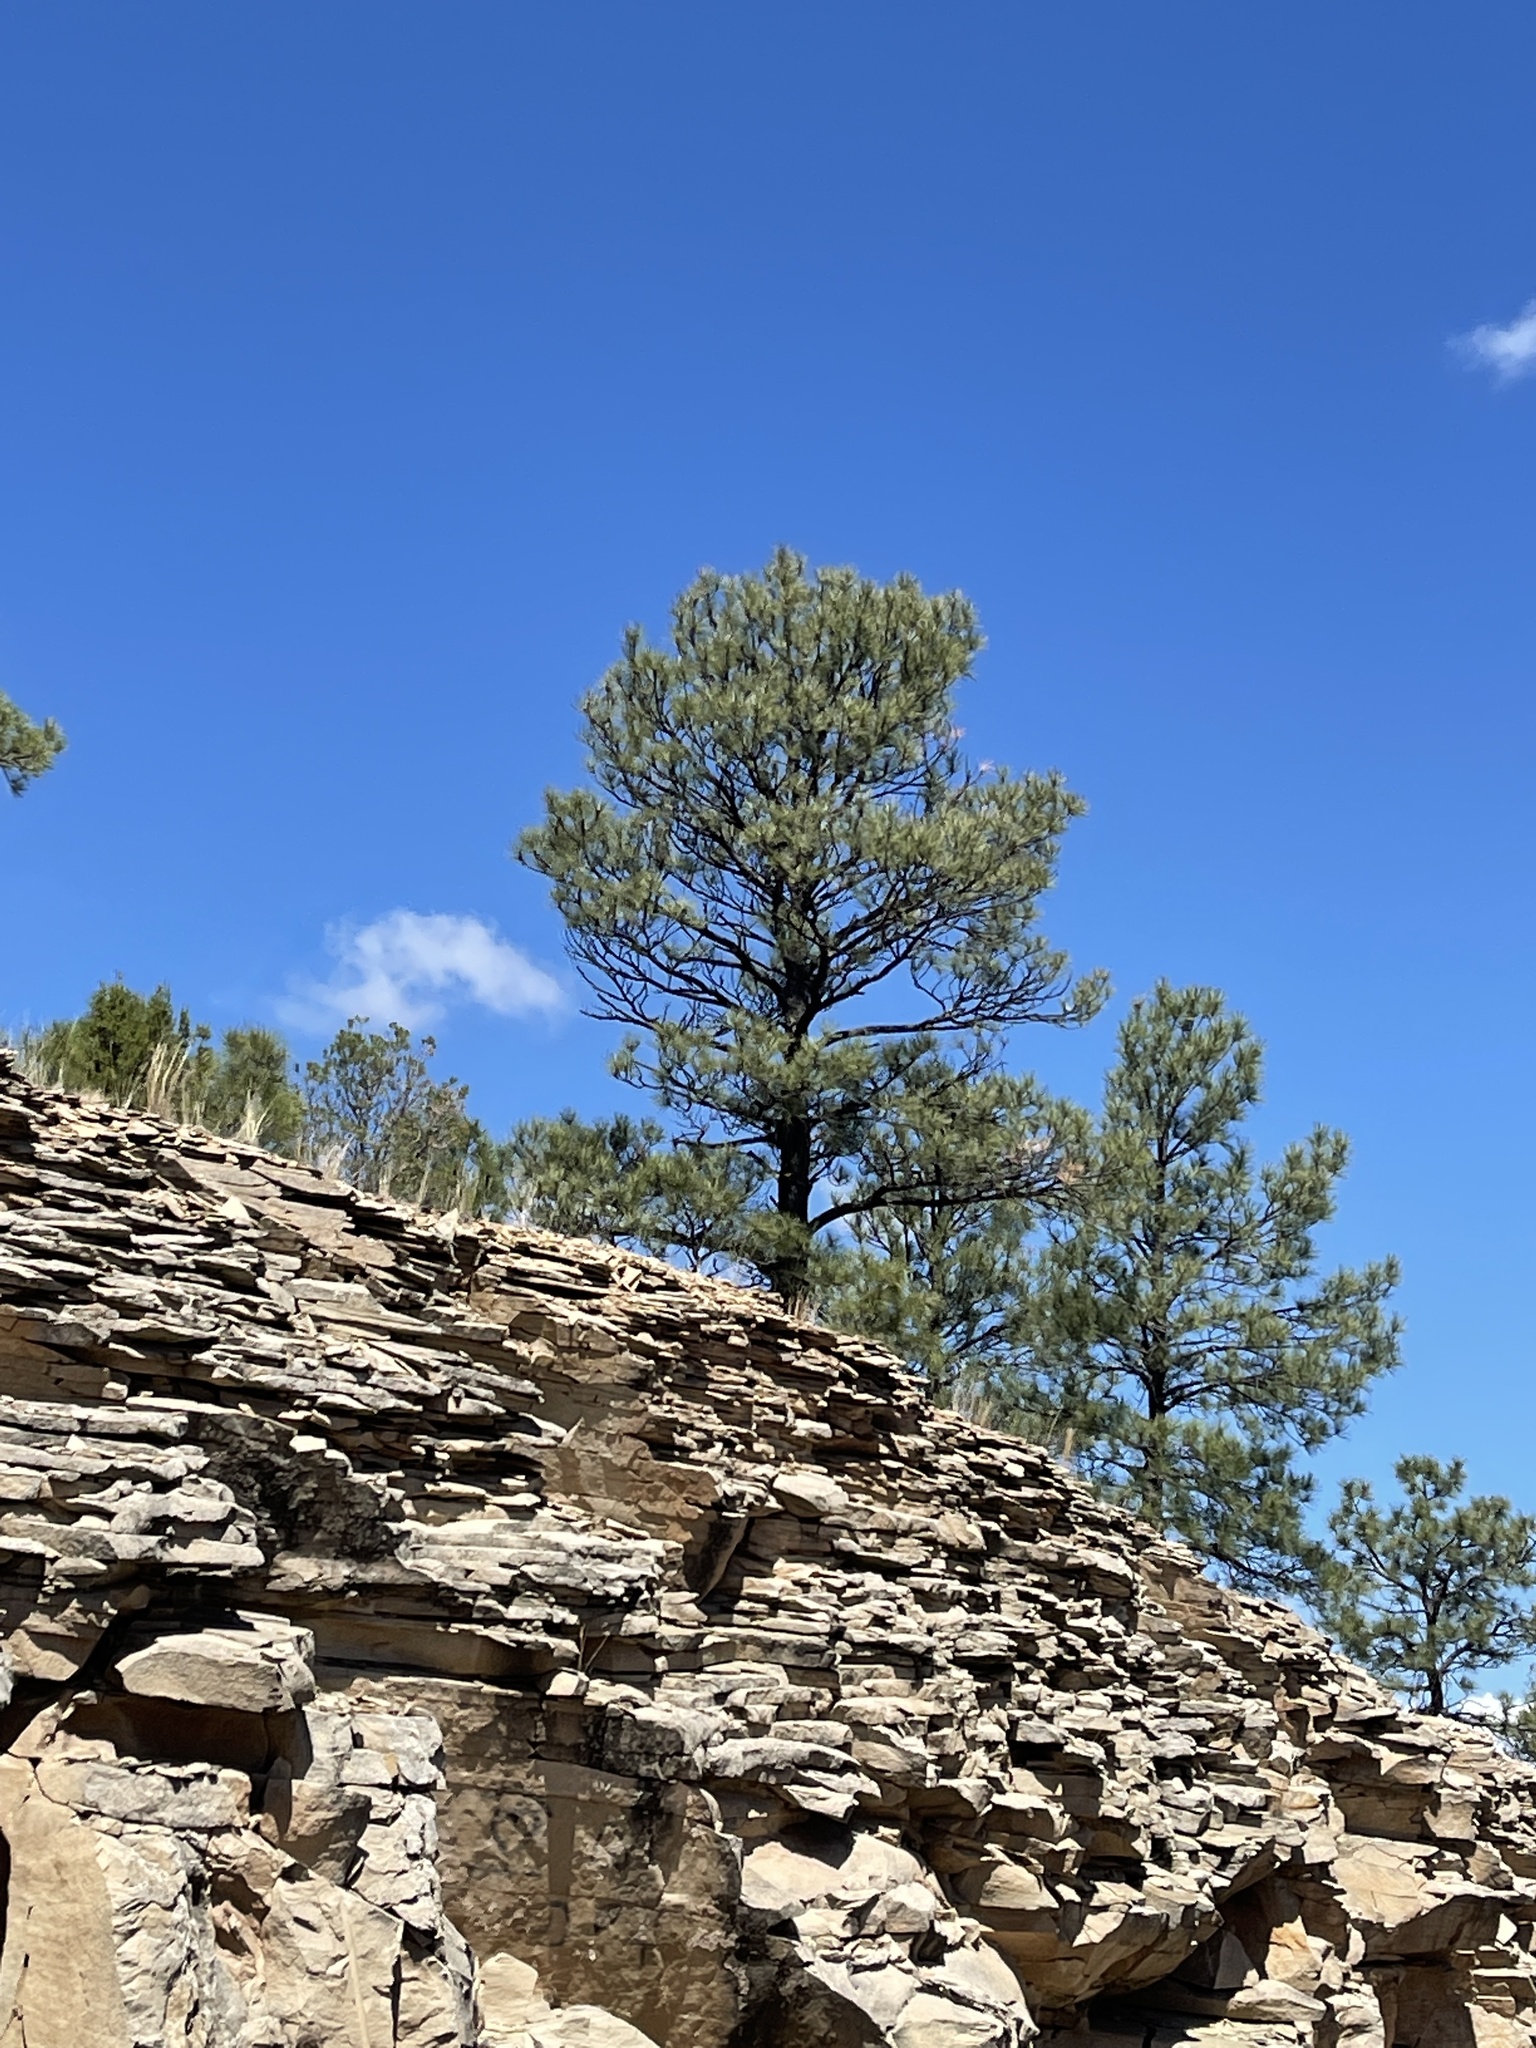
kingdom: Plantae
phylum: Tracheophyta
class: Pinopsida
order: Pinales
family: Pinaceae
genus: Pinus
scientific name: Pinus ponderosa
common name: Western yellow-pine
